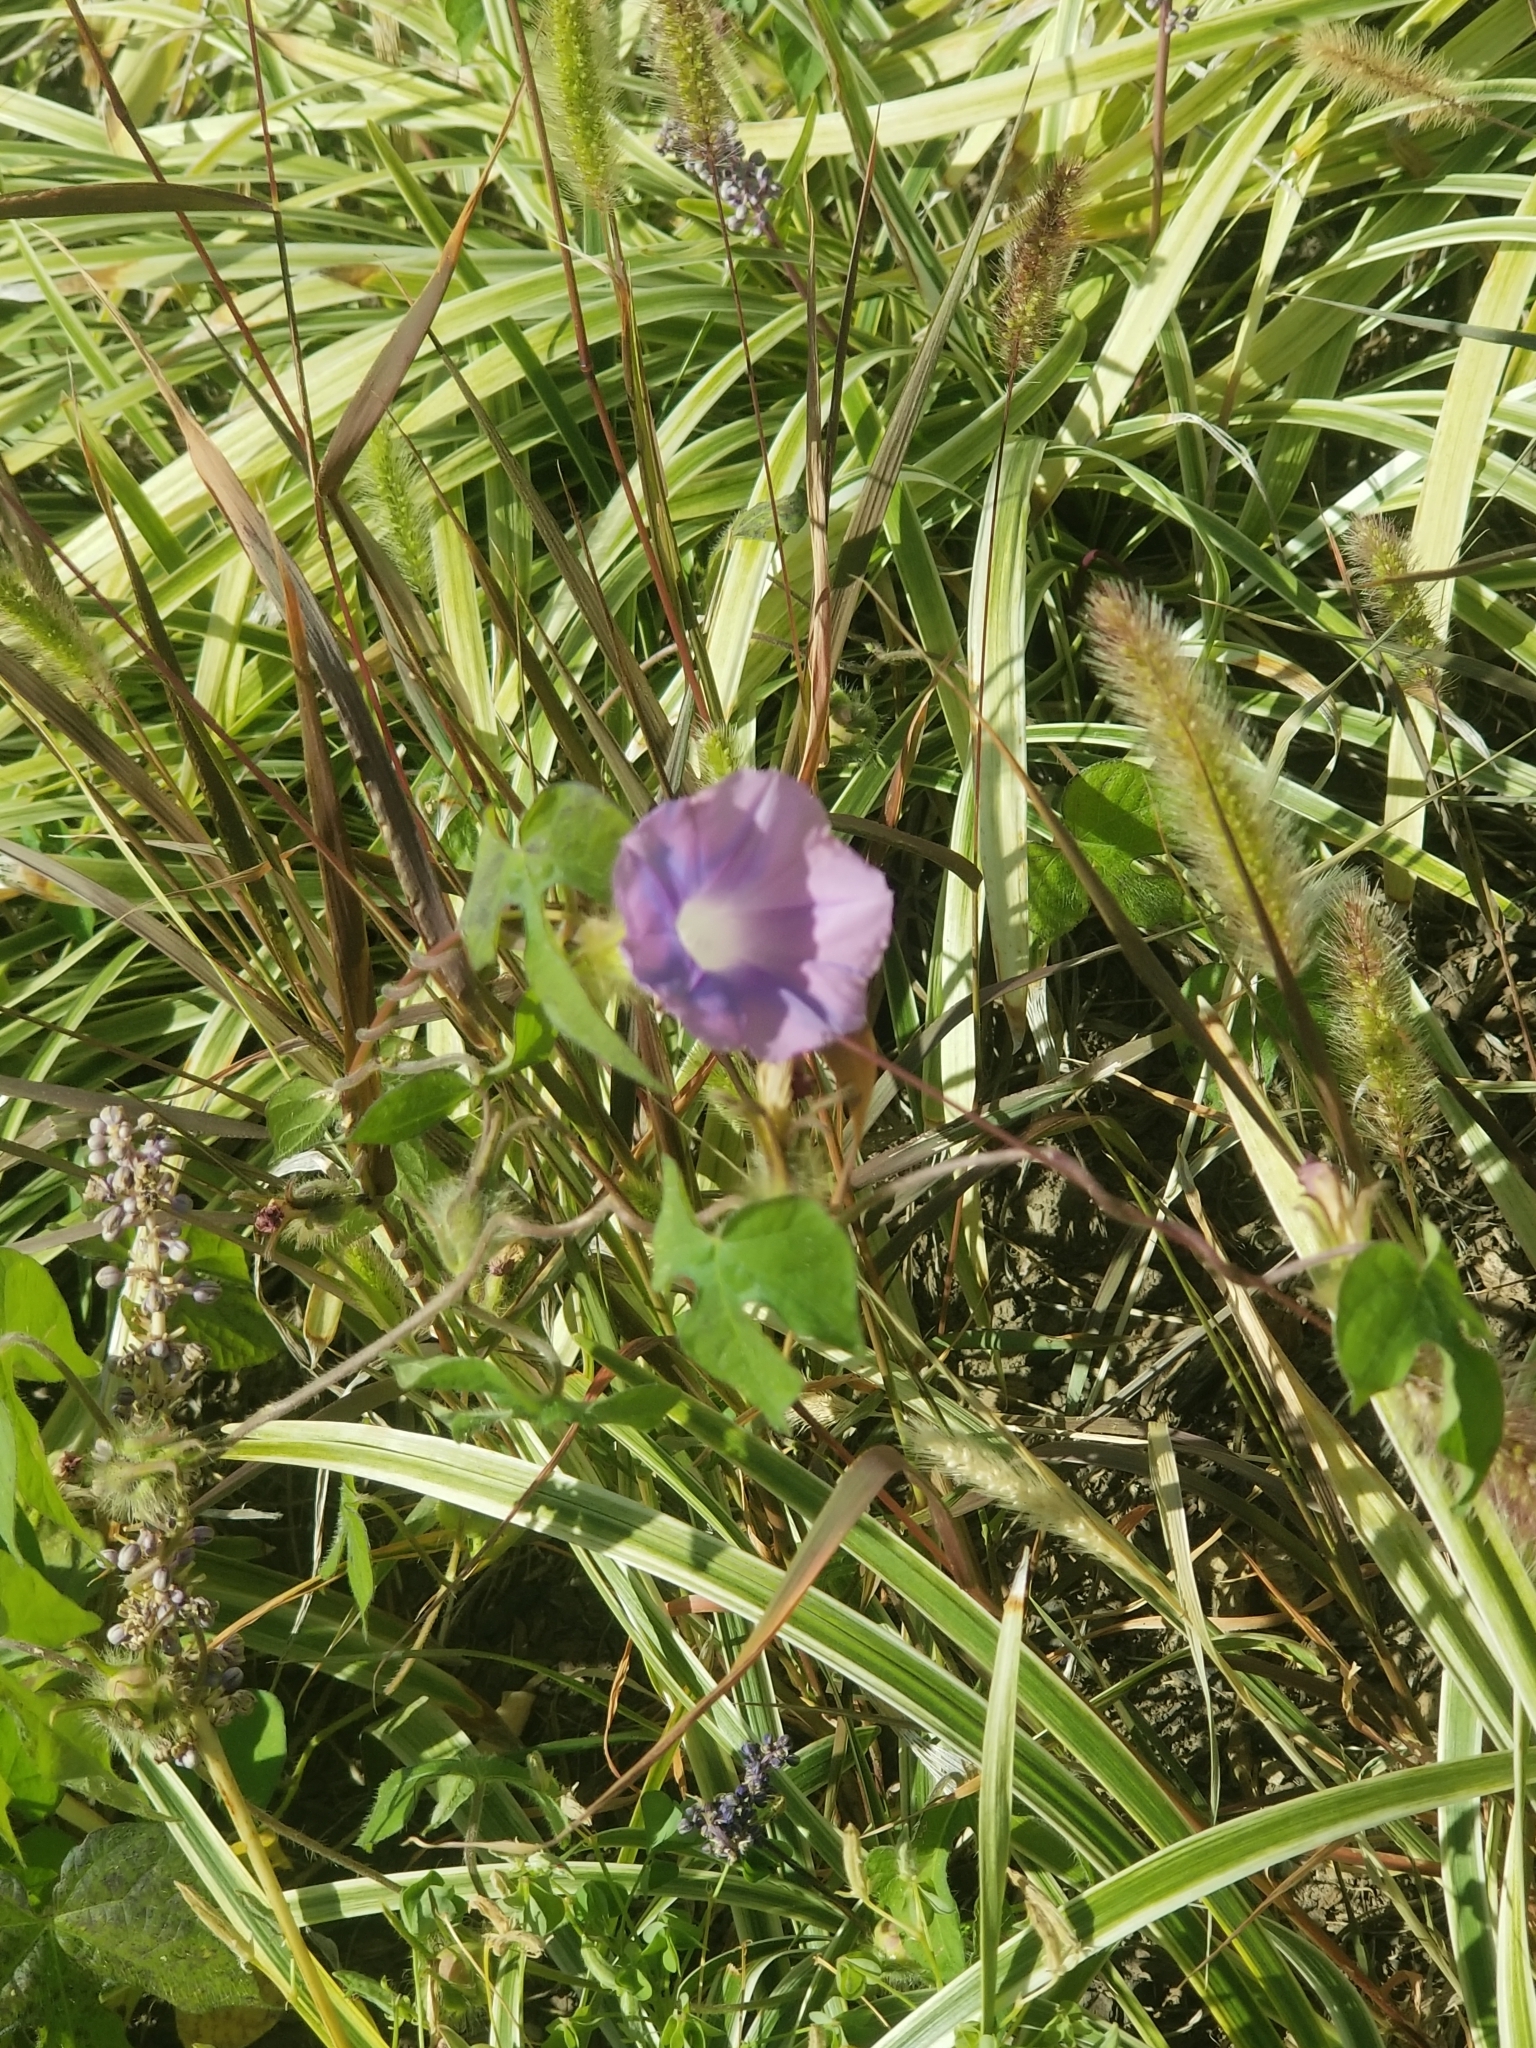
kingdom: Plantae
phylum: Tracheophyta
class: Magnoliopsida
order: Solanales
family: Convolvulaceae
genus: Ipomoea
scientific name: Ipomoea hederacea
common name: Ivy-leaved morning-glory
